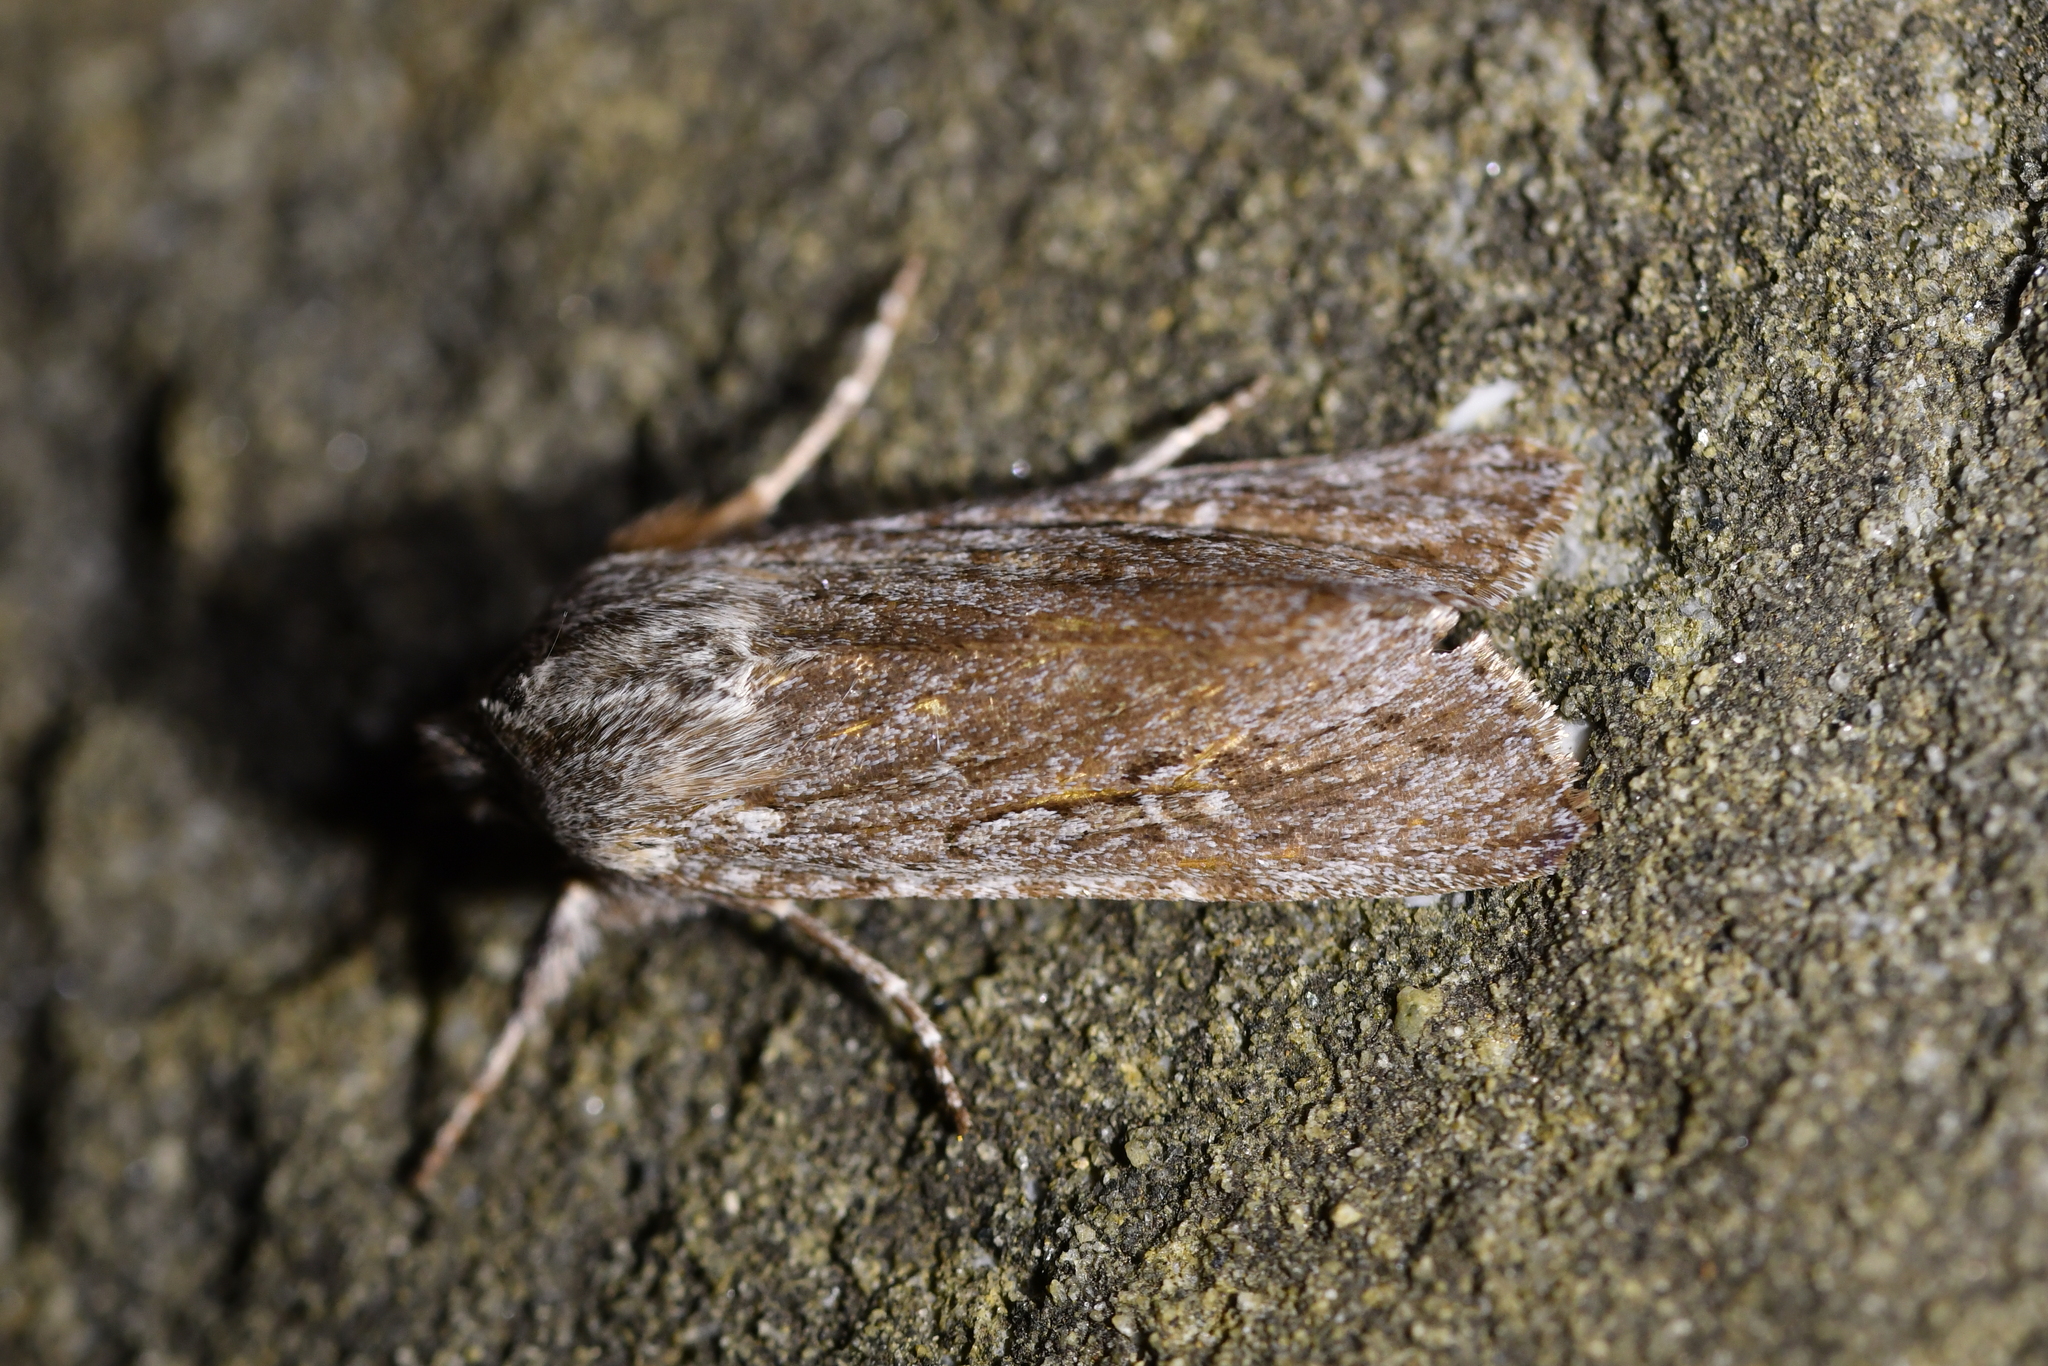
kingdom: Animalia
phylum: Arthropoda
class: Insecta
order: Lepidoptera
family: Noctuidae
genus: Physetica
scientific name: Physetica sequens
